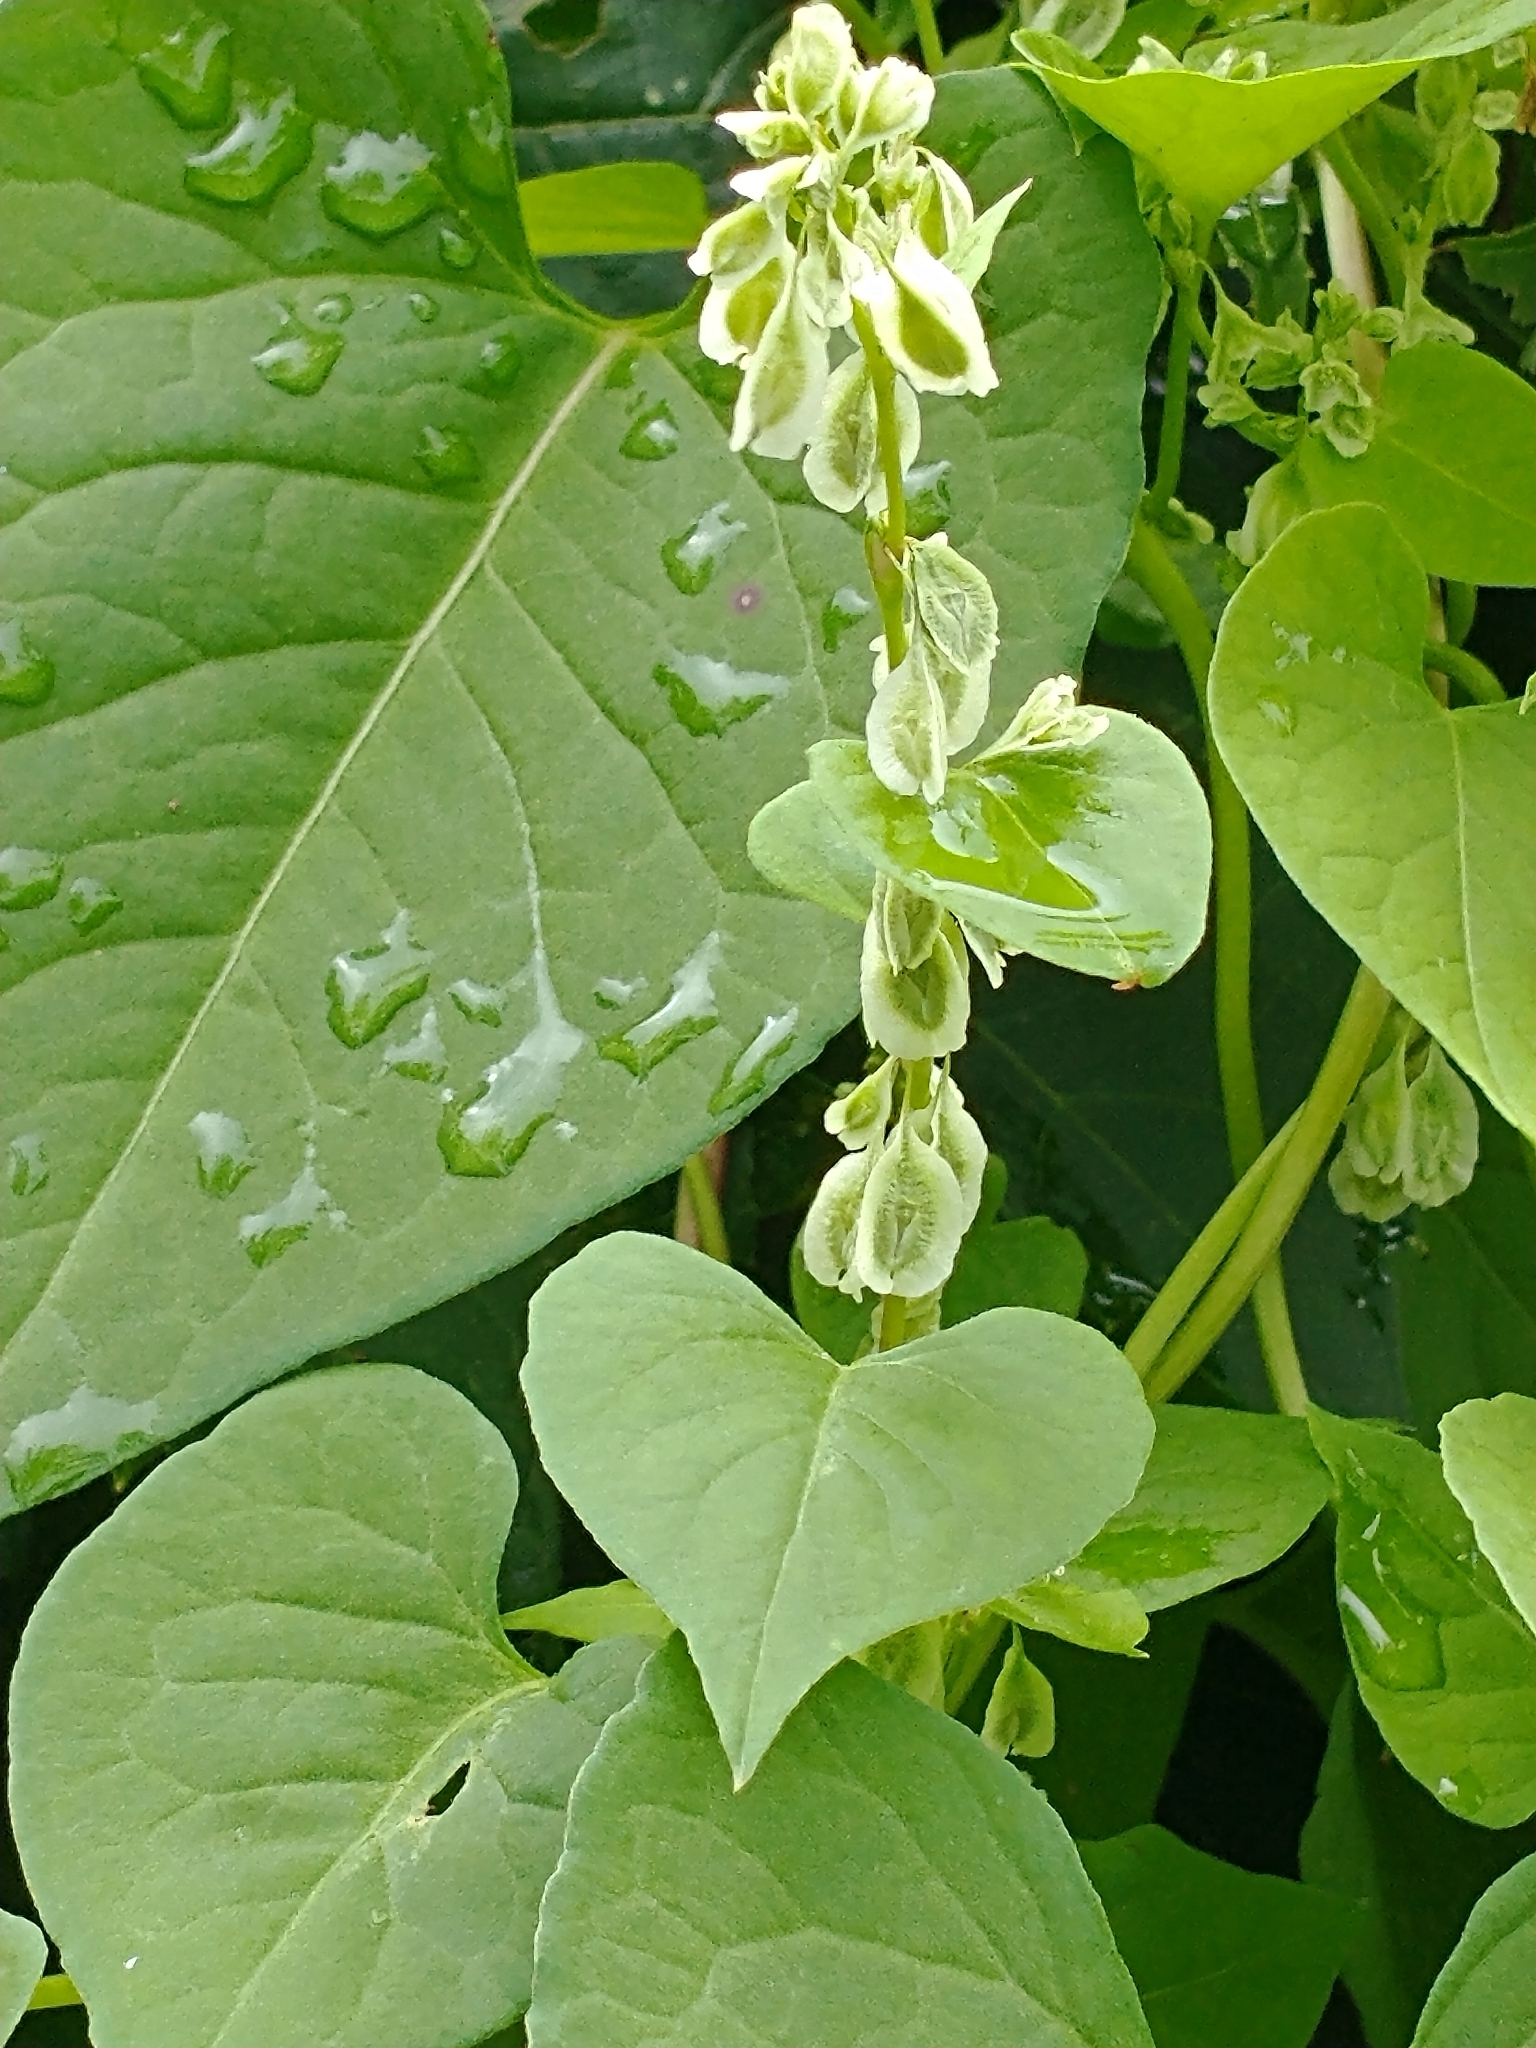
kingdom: Plantae
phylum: Tracheophyta
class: Magnoliopsida
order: Caryophyllales
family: Polygonaceae
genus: Fallopia
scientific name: Fallopia scandens
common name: Climbing false buckwheat
